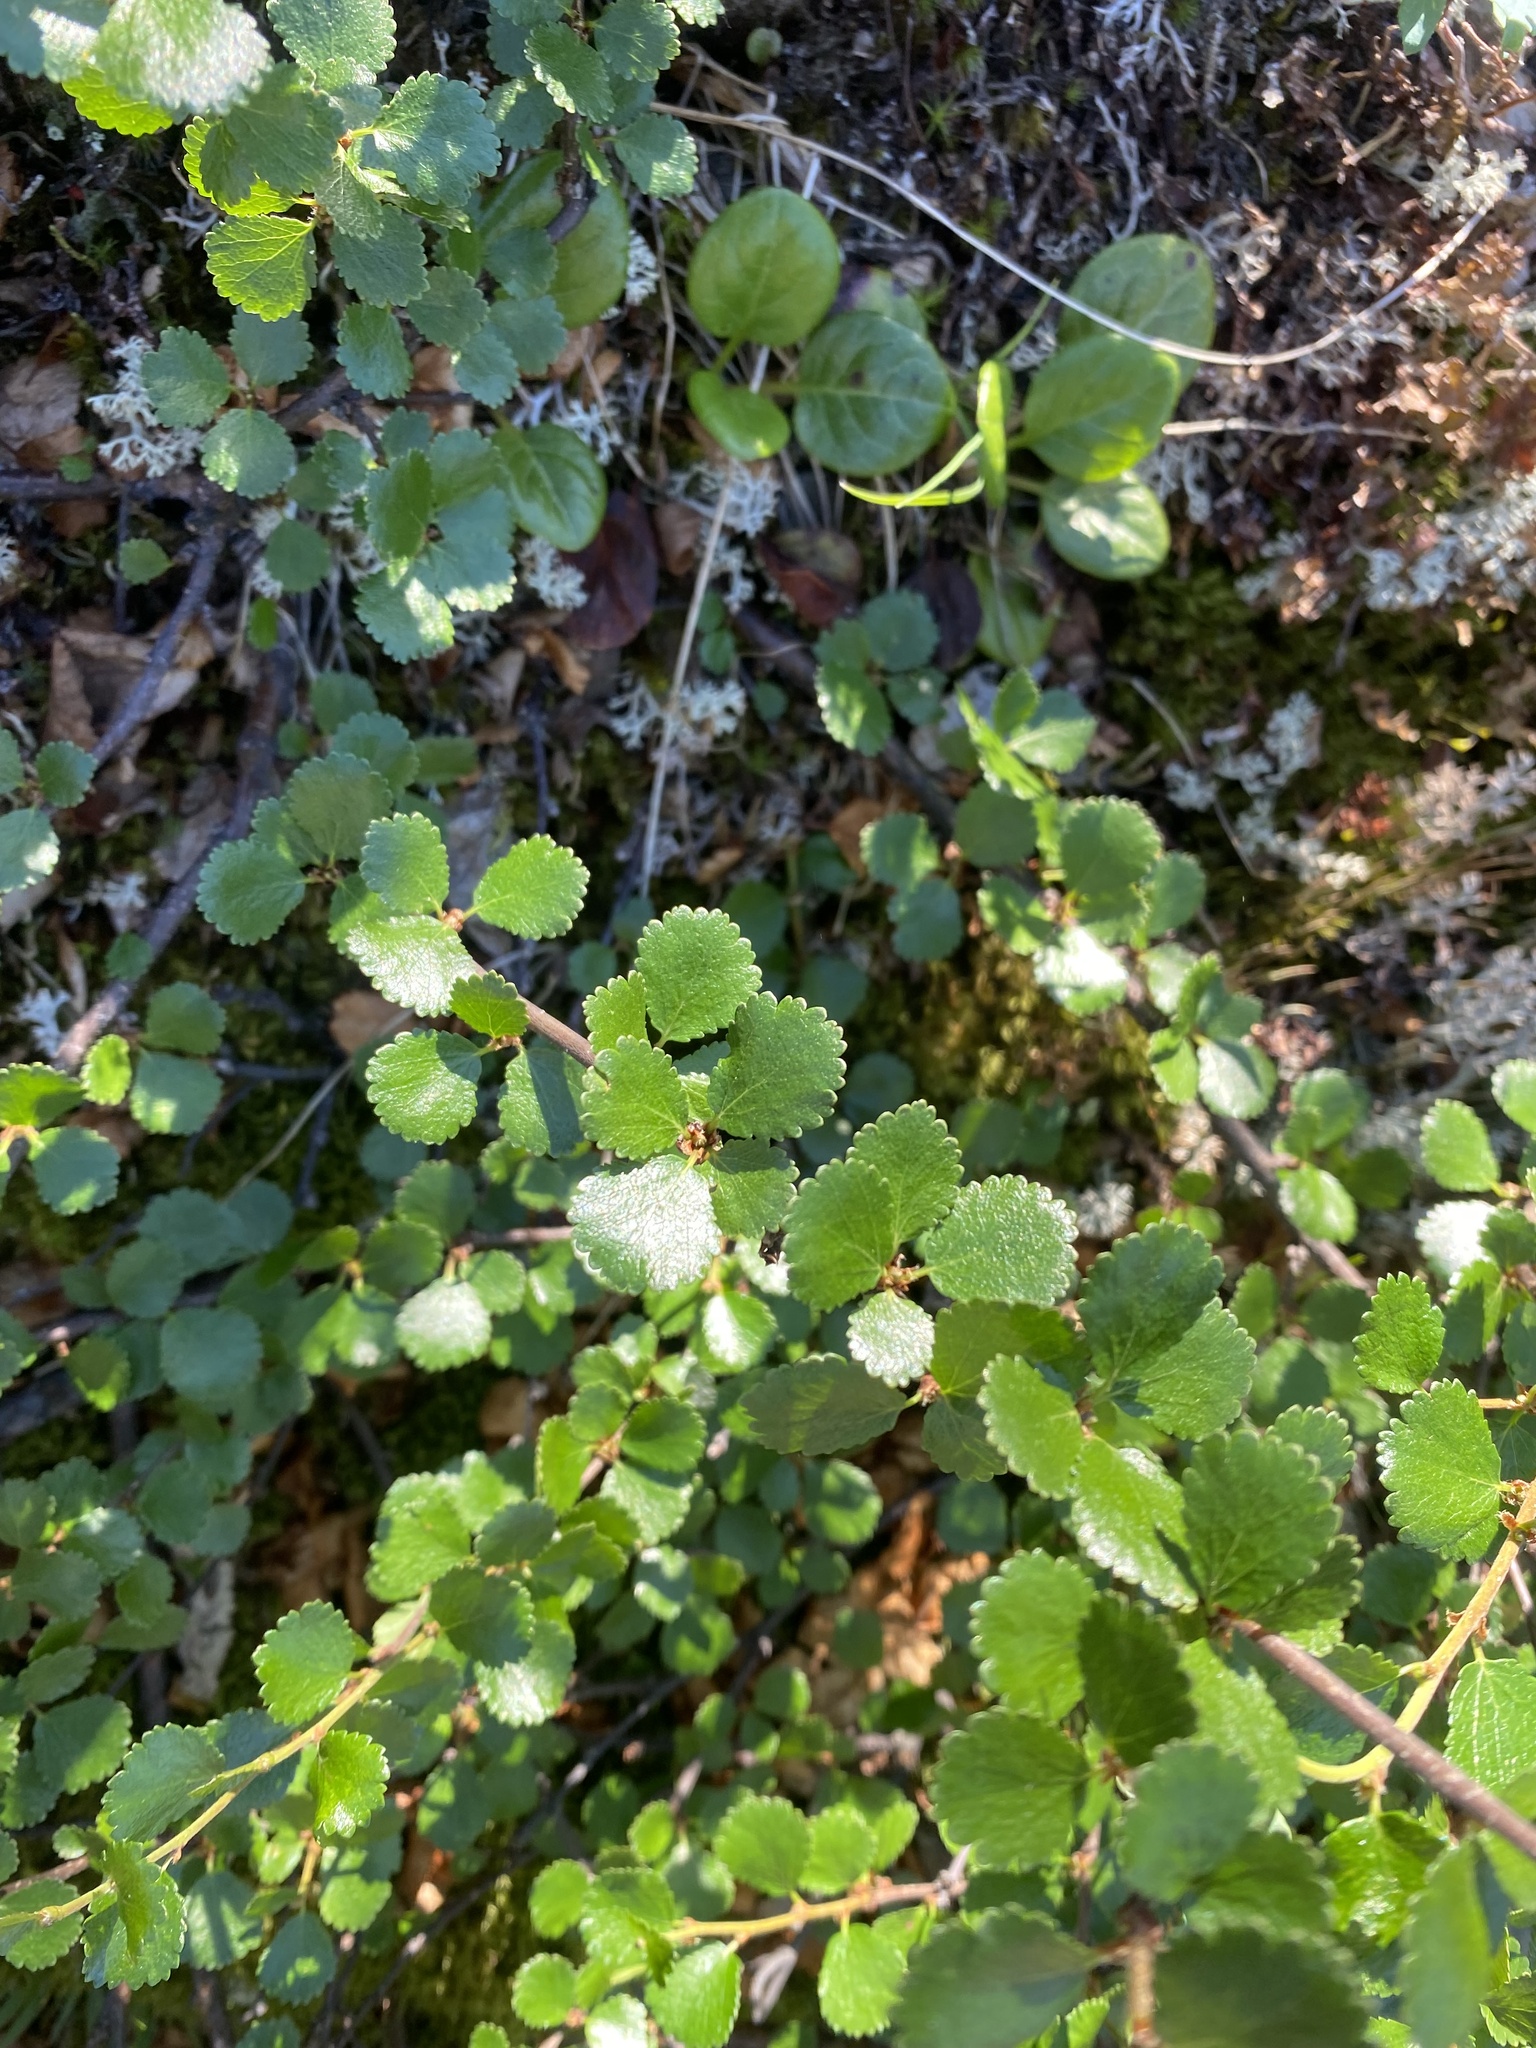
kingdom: Plantae
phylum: Tracheophyta
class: Magnoliopsida
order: Fagales
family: Betulaceae
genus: Betula
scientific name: Betula nana
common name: Arctic dwarf birch
